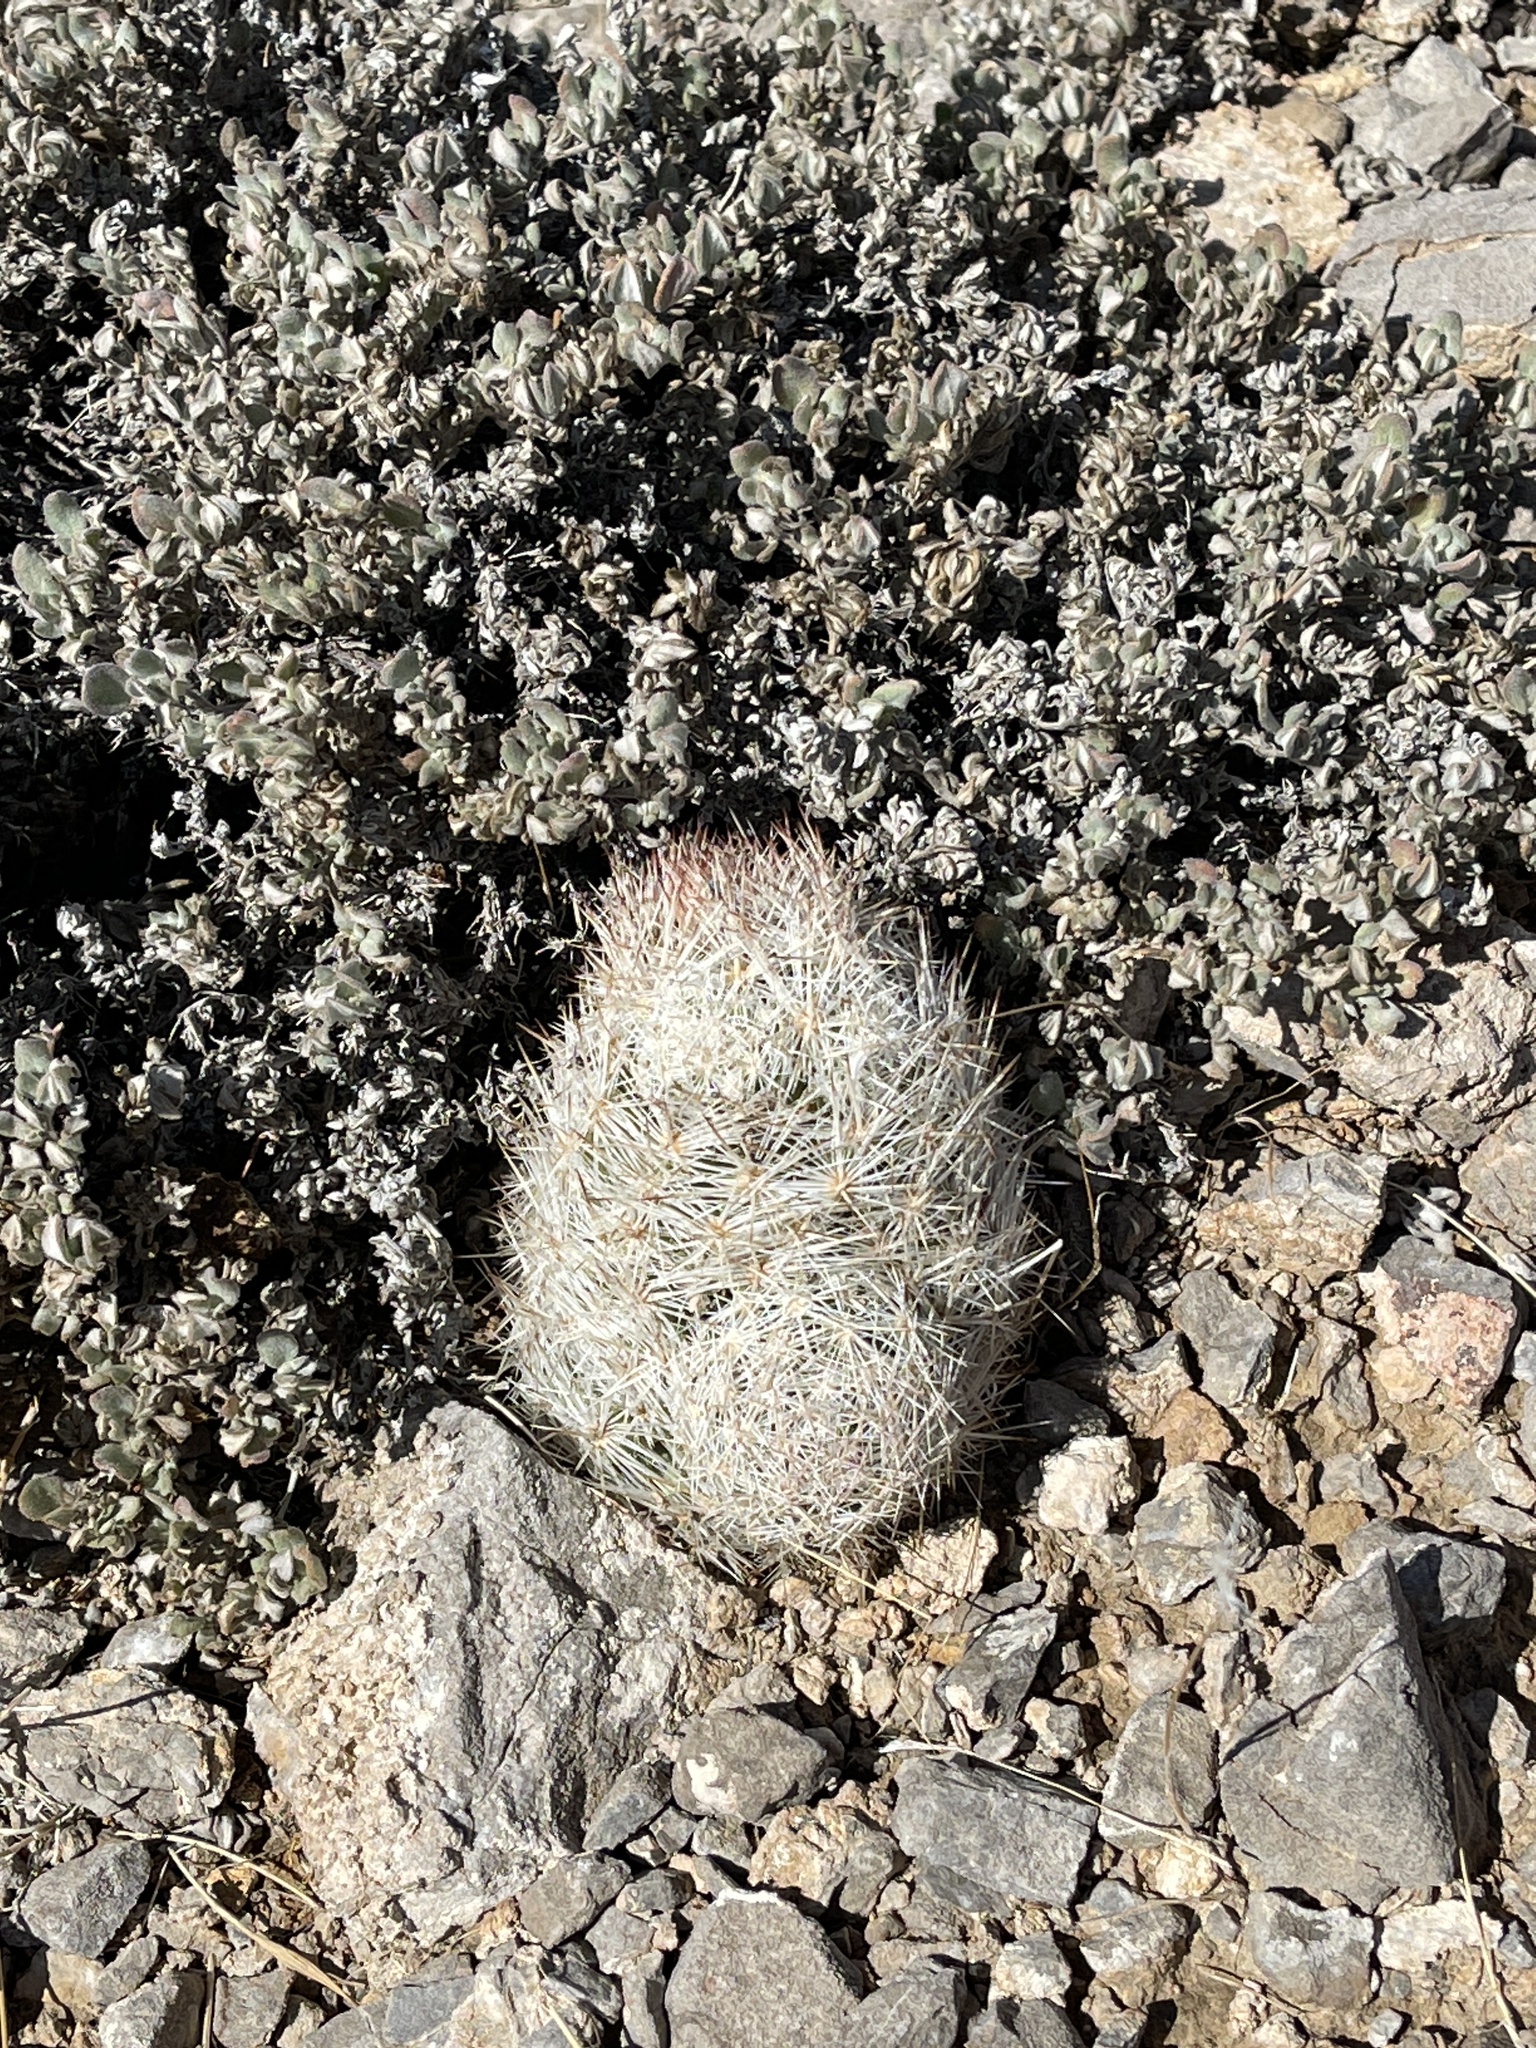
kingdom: Plantae
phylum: Tracheophyta
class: Magnoliopsida
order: Caryophyllales
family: Cactaceae
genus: Pelecyphora
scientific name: Pelecyphora vivipara
